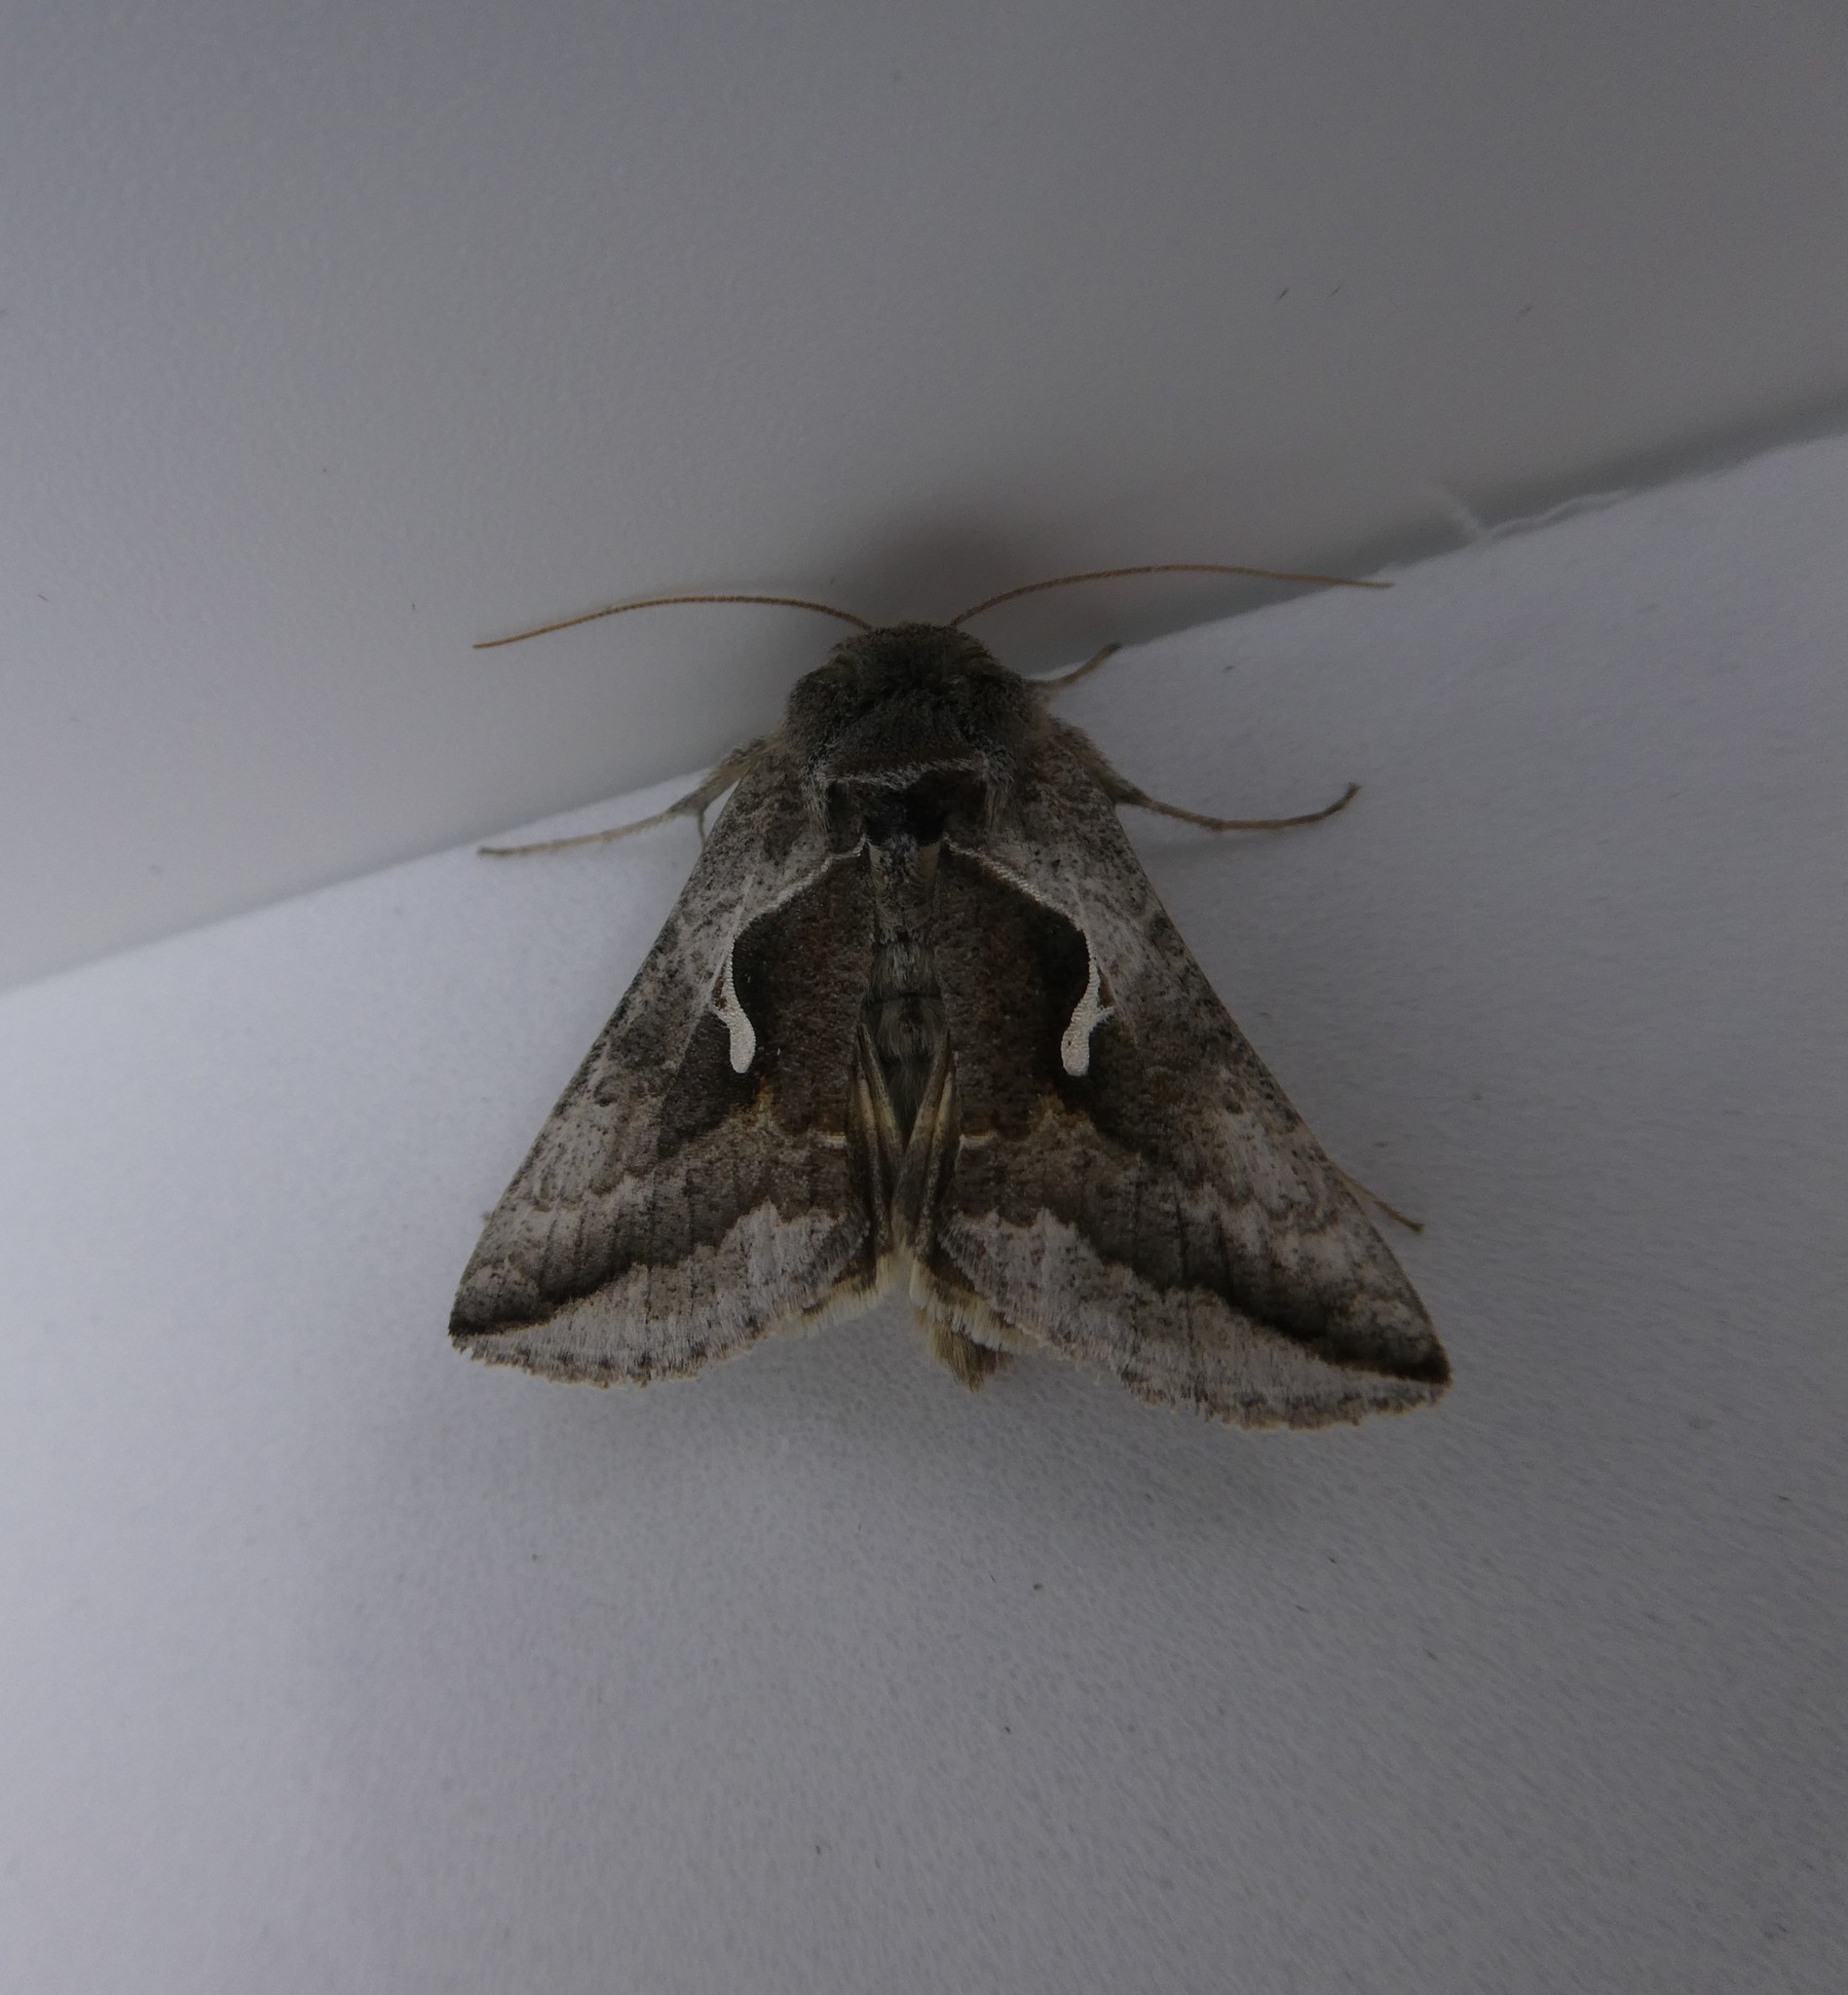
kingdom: Animalia
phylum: Arthropoda
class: Insecta
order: Lepidoptera
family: Noctuidae
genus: Anagrapha
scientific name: Anagrapha falcifera
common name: Celery looper
